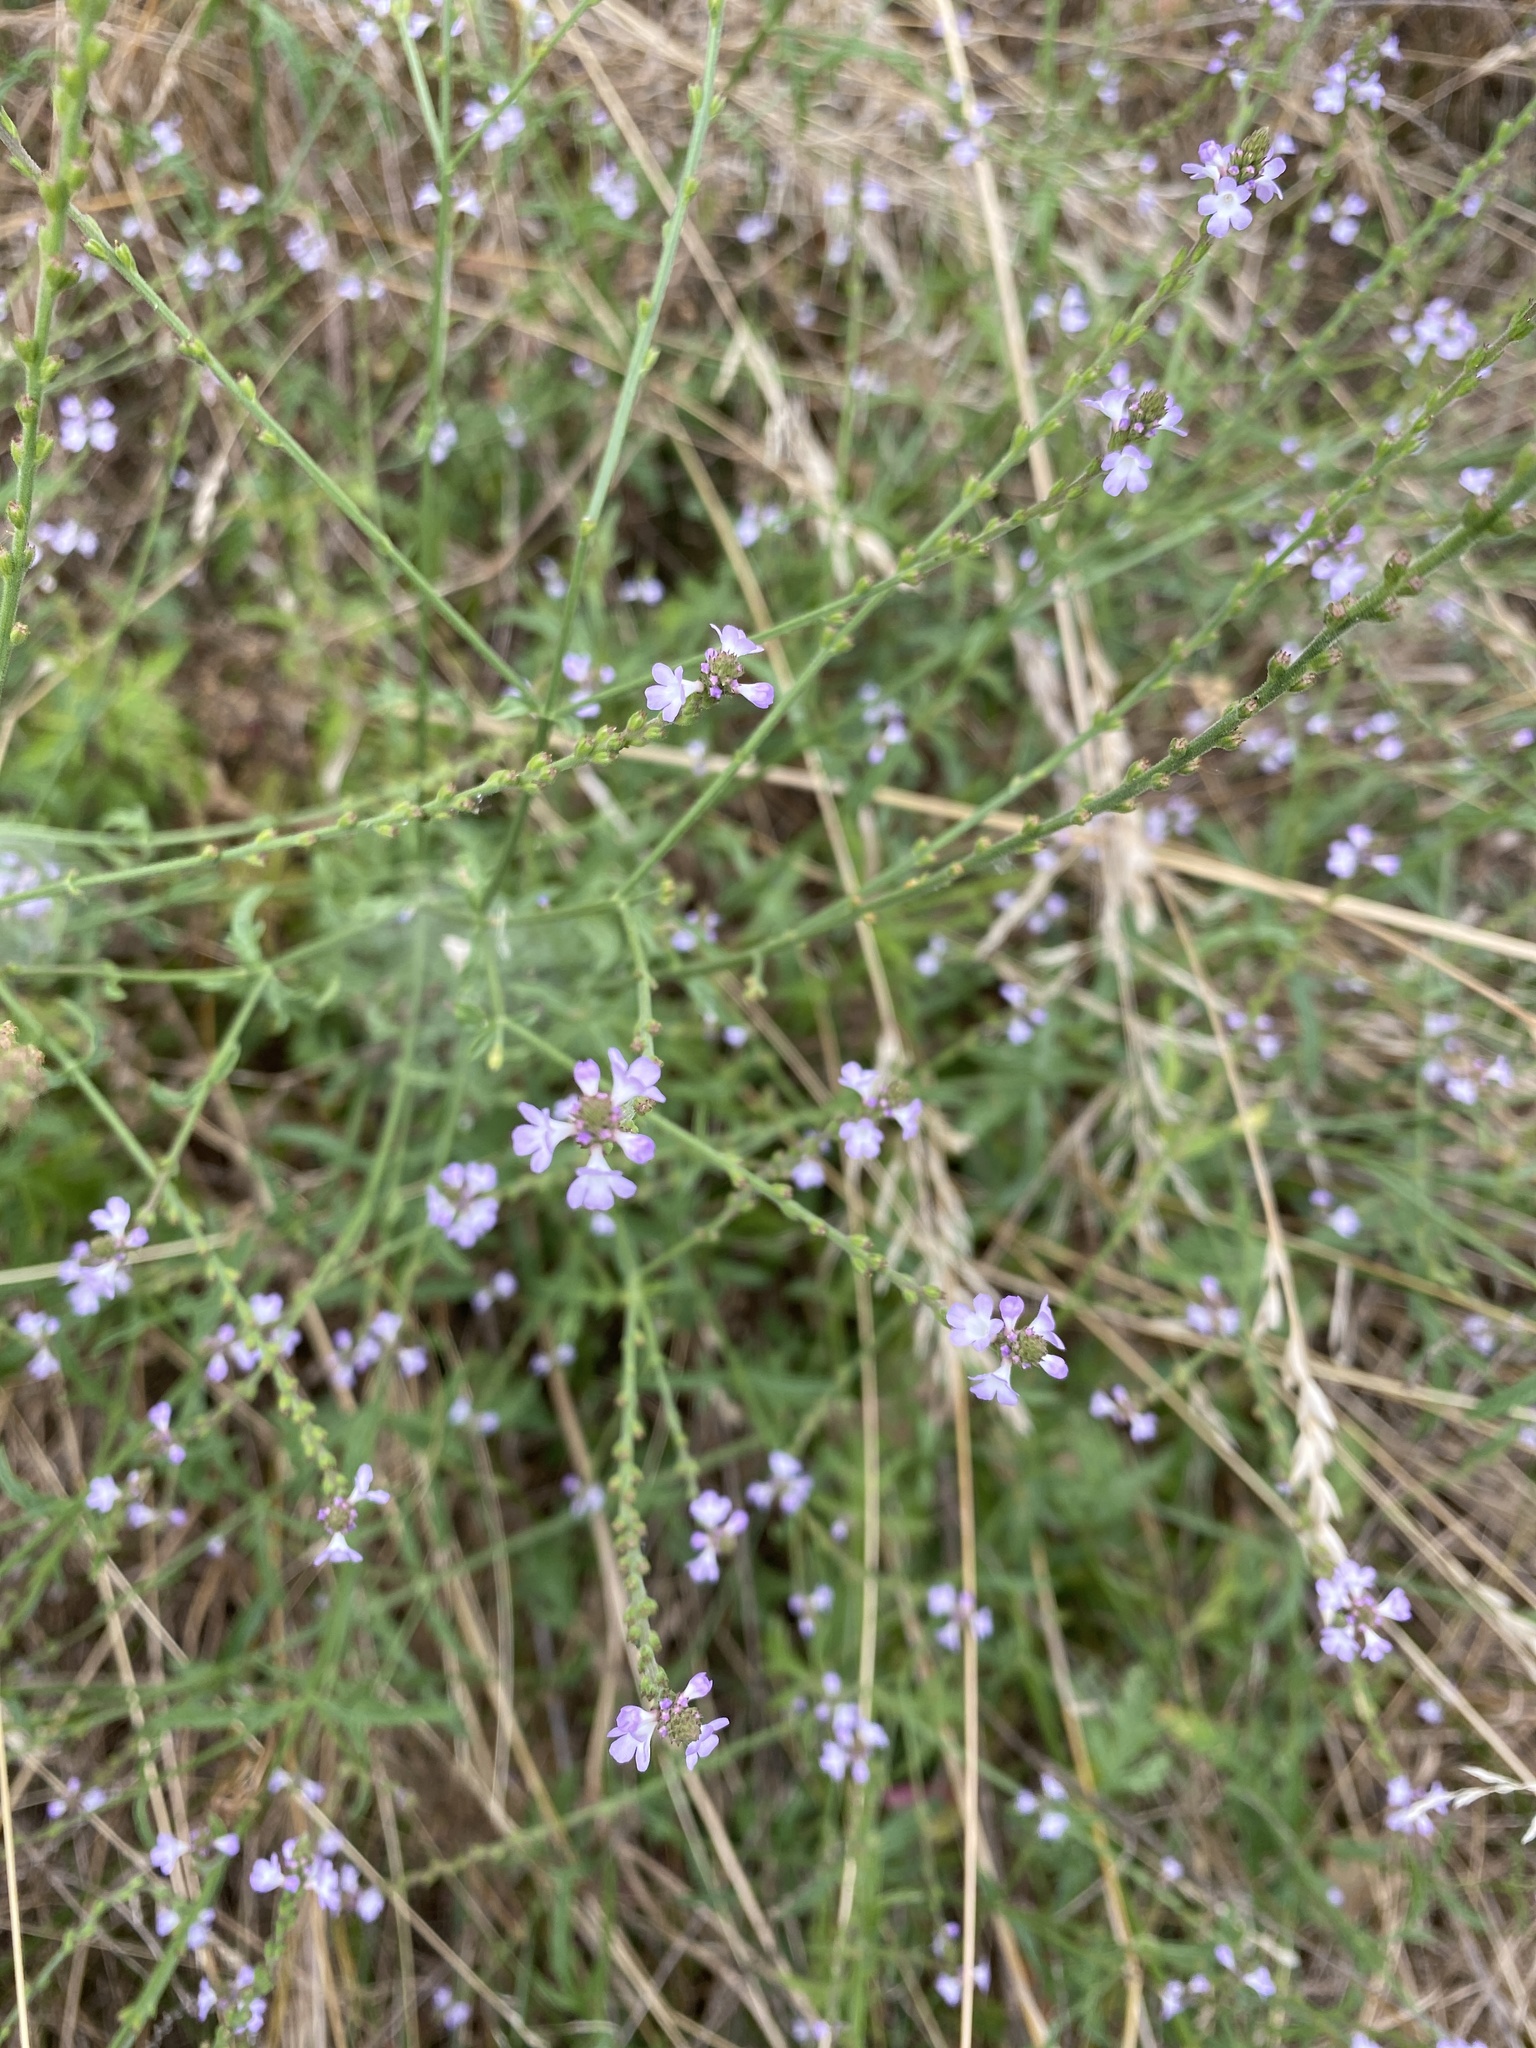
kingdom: Plantae
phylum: Tracheophyta
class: Magnoliopsida
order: Lamiales
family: Verbenaceae
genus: Verbena
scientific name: Verbena officinalis
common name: Vervain
